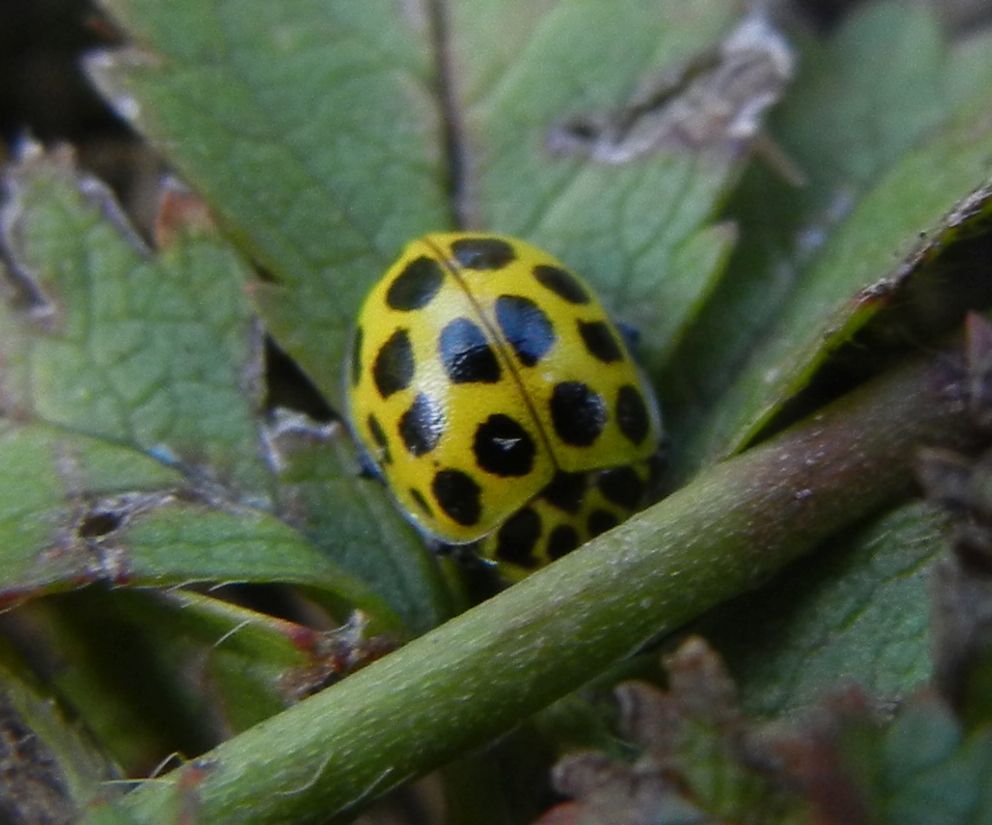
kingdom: Animalia
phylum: Arthropoda
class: Insecta
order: Coleoptera
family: Coccinellidae
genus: Psyllobora
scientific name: Psyllobora vigintiduopunctata
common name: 22-spot ladybird
